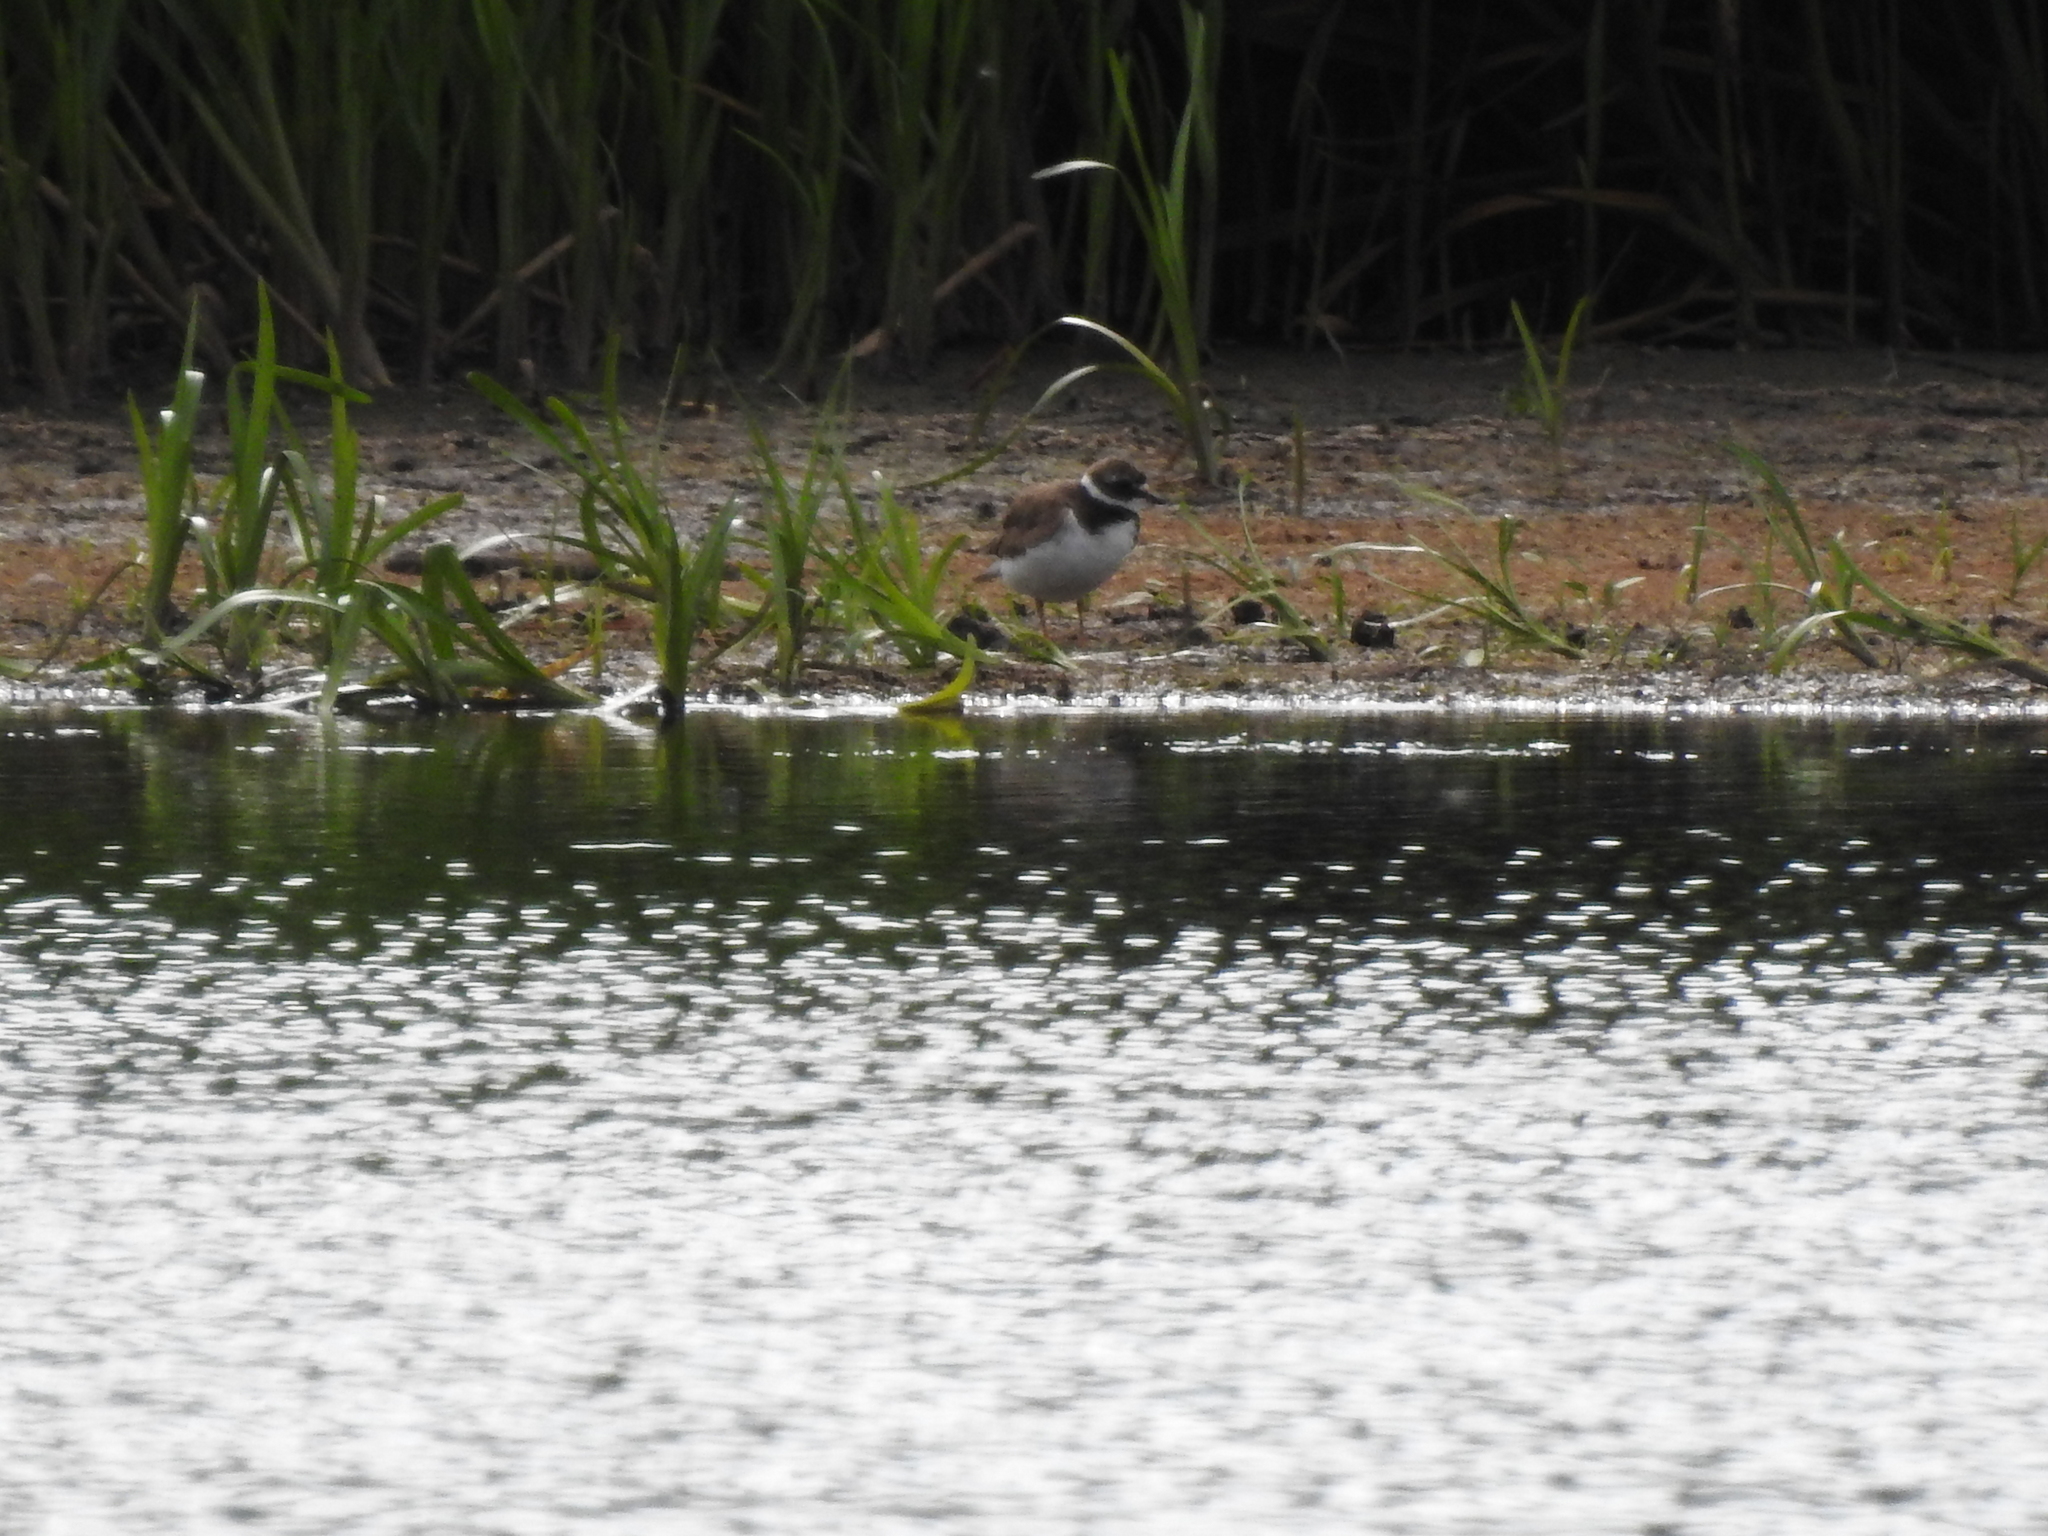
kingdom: Animalia
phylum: Chordata
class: Aves
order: Charadriiformes
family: Charadriidae
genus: Charadrius
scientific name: Charadrius hiaticula
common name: Common ringed plover
